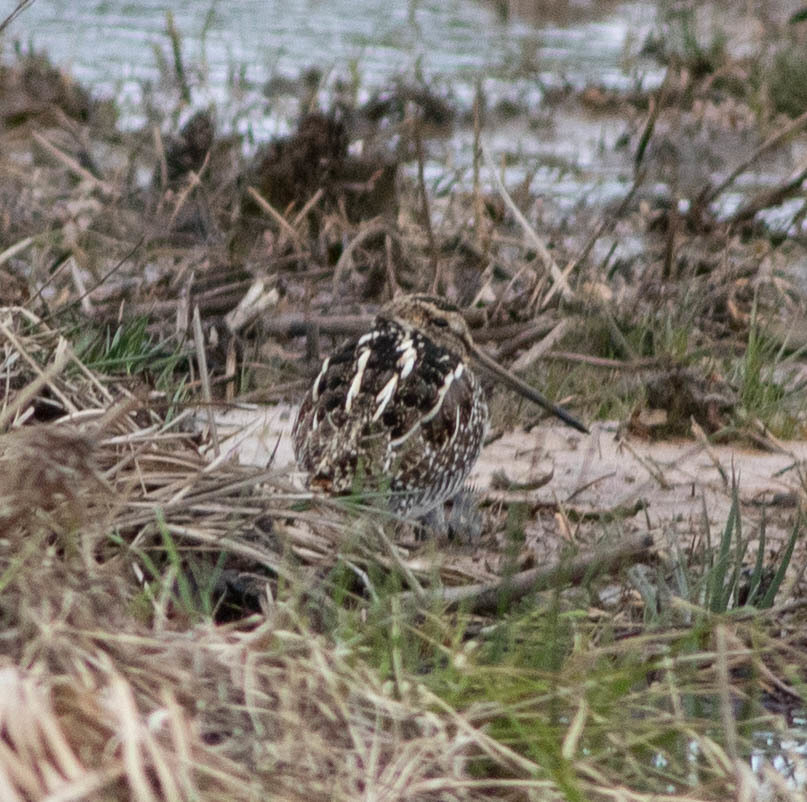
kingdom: Animalia
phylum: Chordata
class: Aves
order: Charadriiformes
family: Scolopacidae
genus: Gallinago
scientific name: Gallinago delicata
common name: Wilson's snipe
